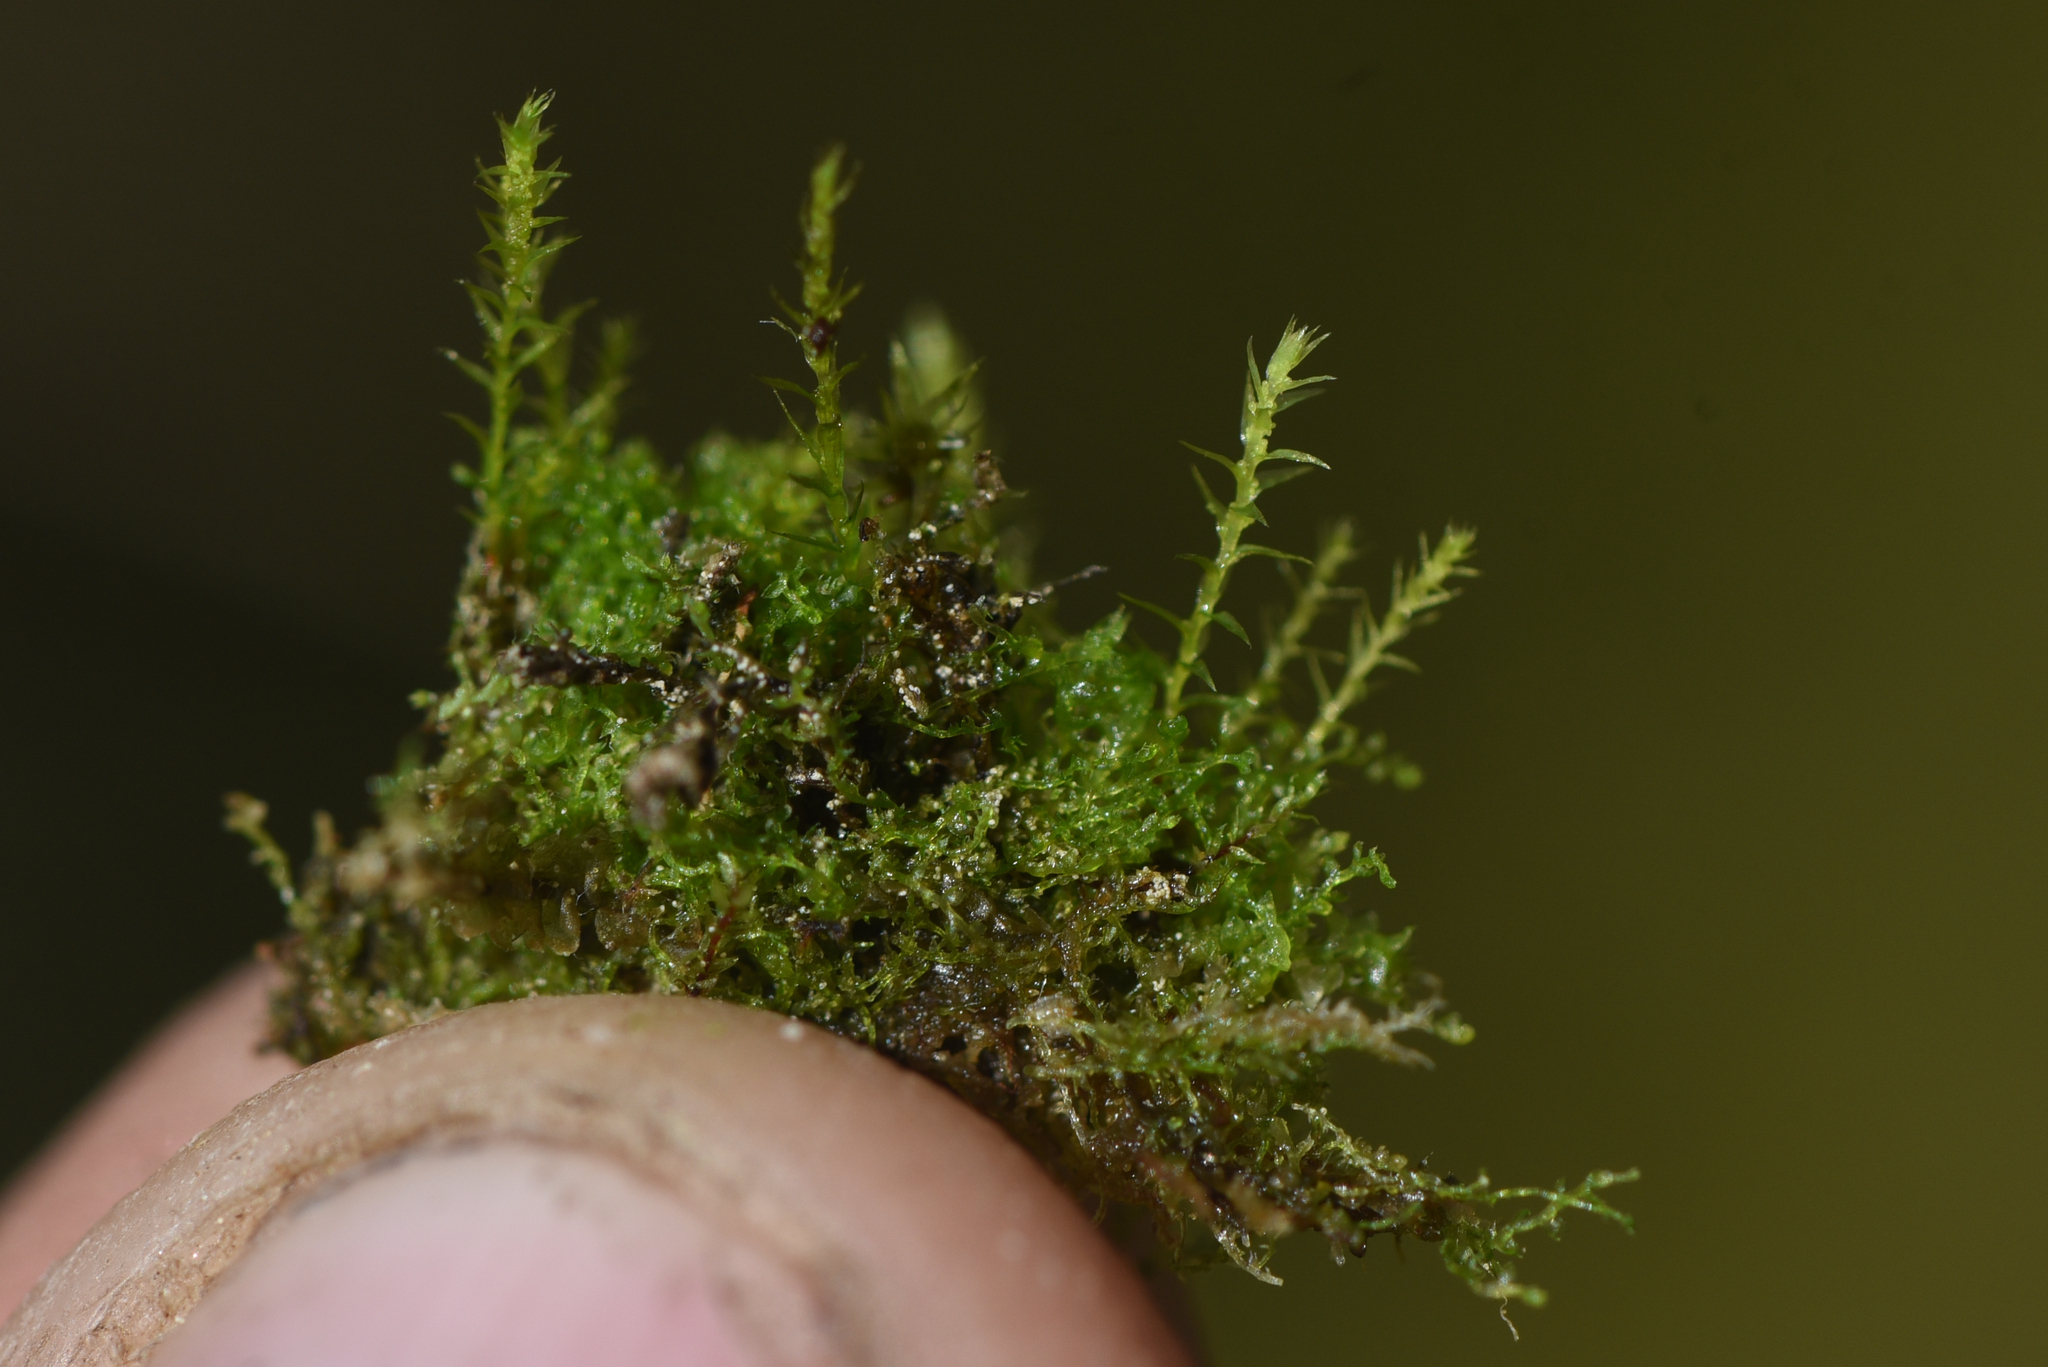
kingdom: Plantae
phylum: Bryophyta
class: Bryopsida
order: Bryales
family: Mniaceae
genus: Pohlia
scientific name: Pohlia bulbifera
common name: Blunt-bud nodding moss
